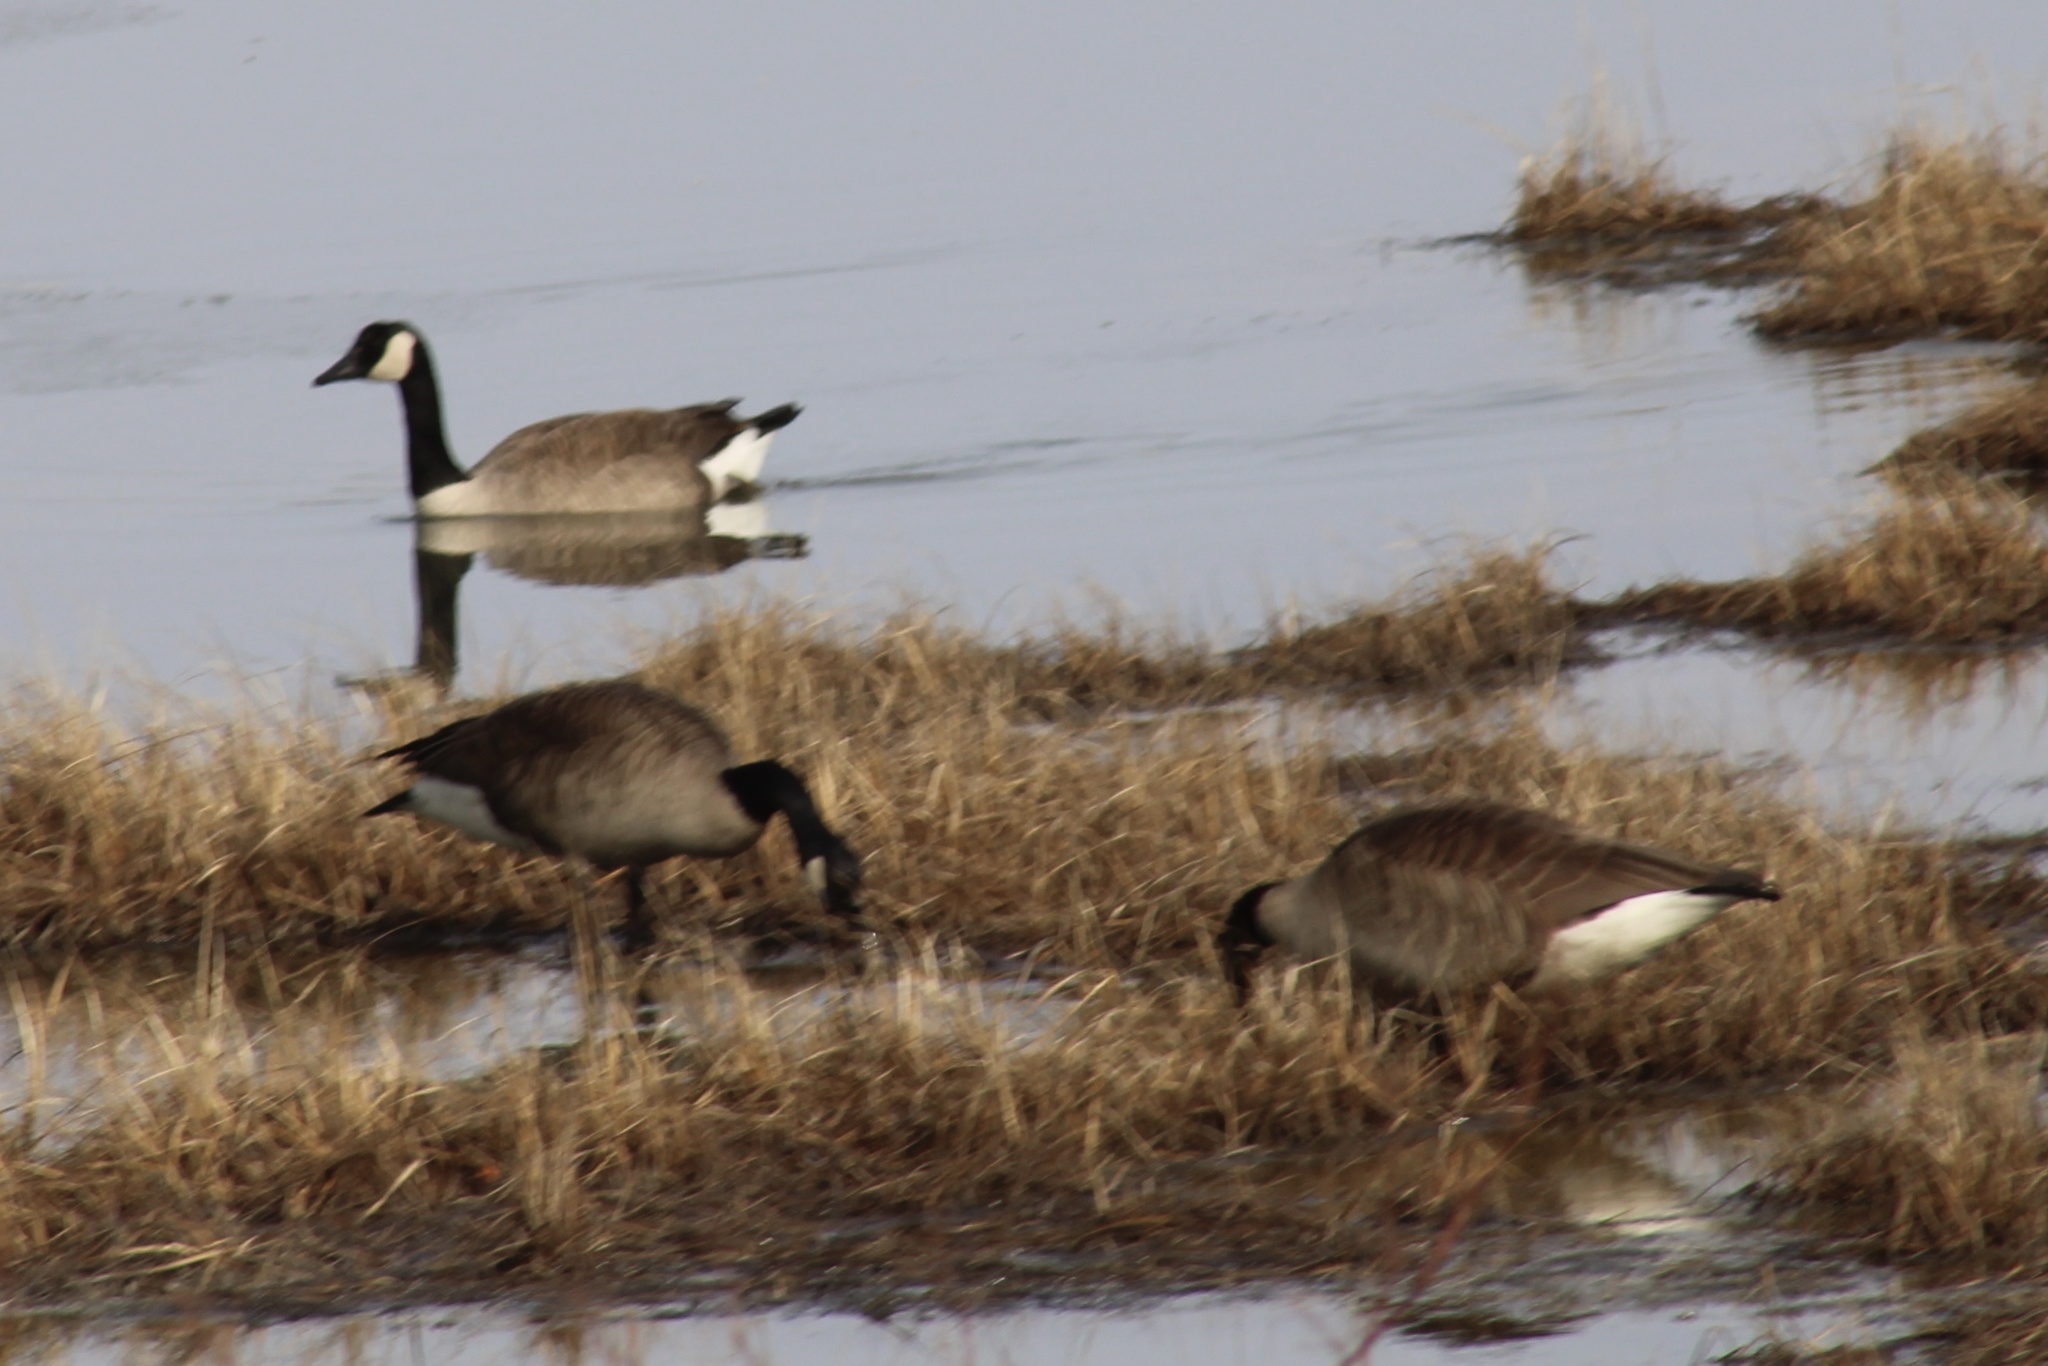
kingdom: Animalia
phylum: Chordata
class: Aves
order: Anseriformes
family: Anatidae
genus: Branta
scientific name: Branta canadensis
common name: Canada goose
